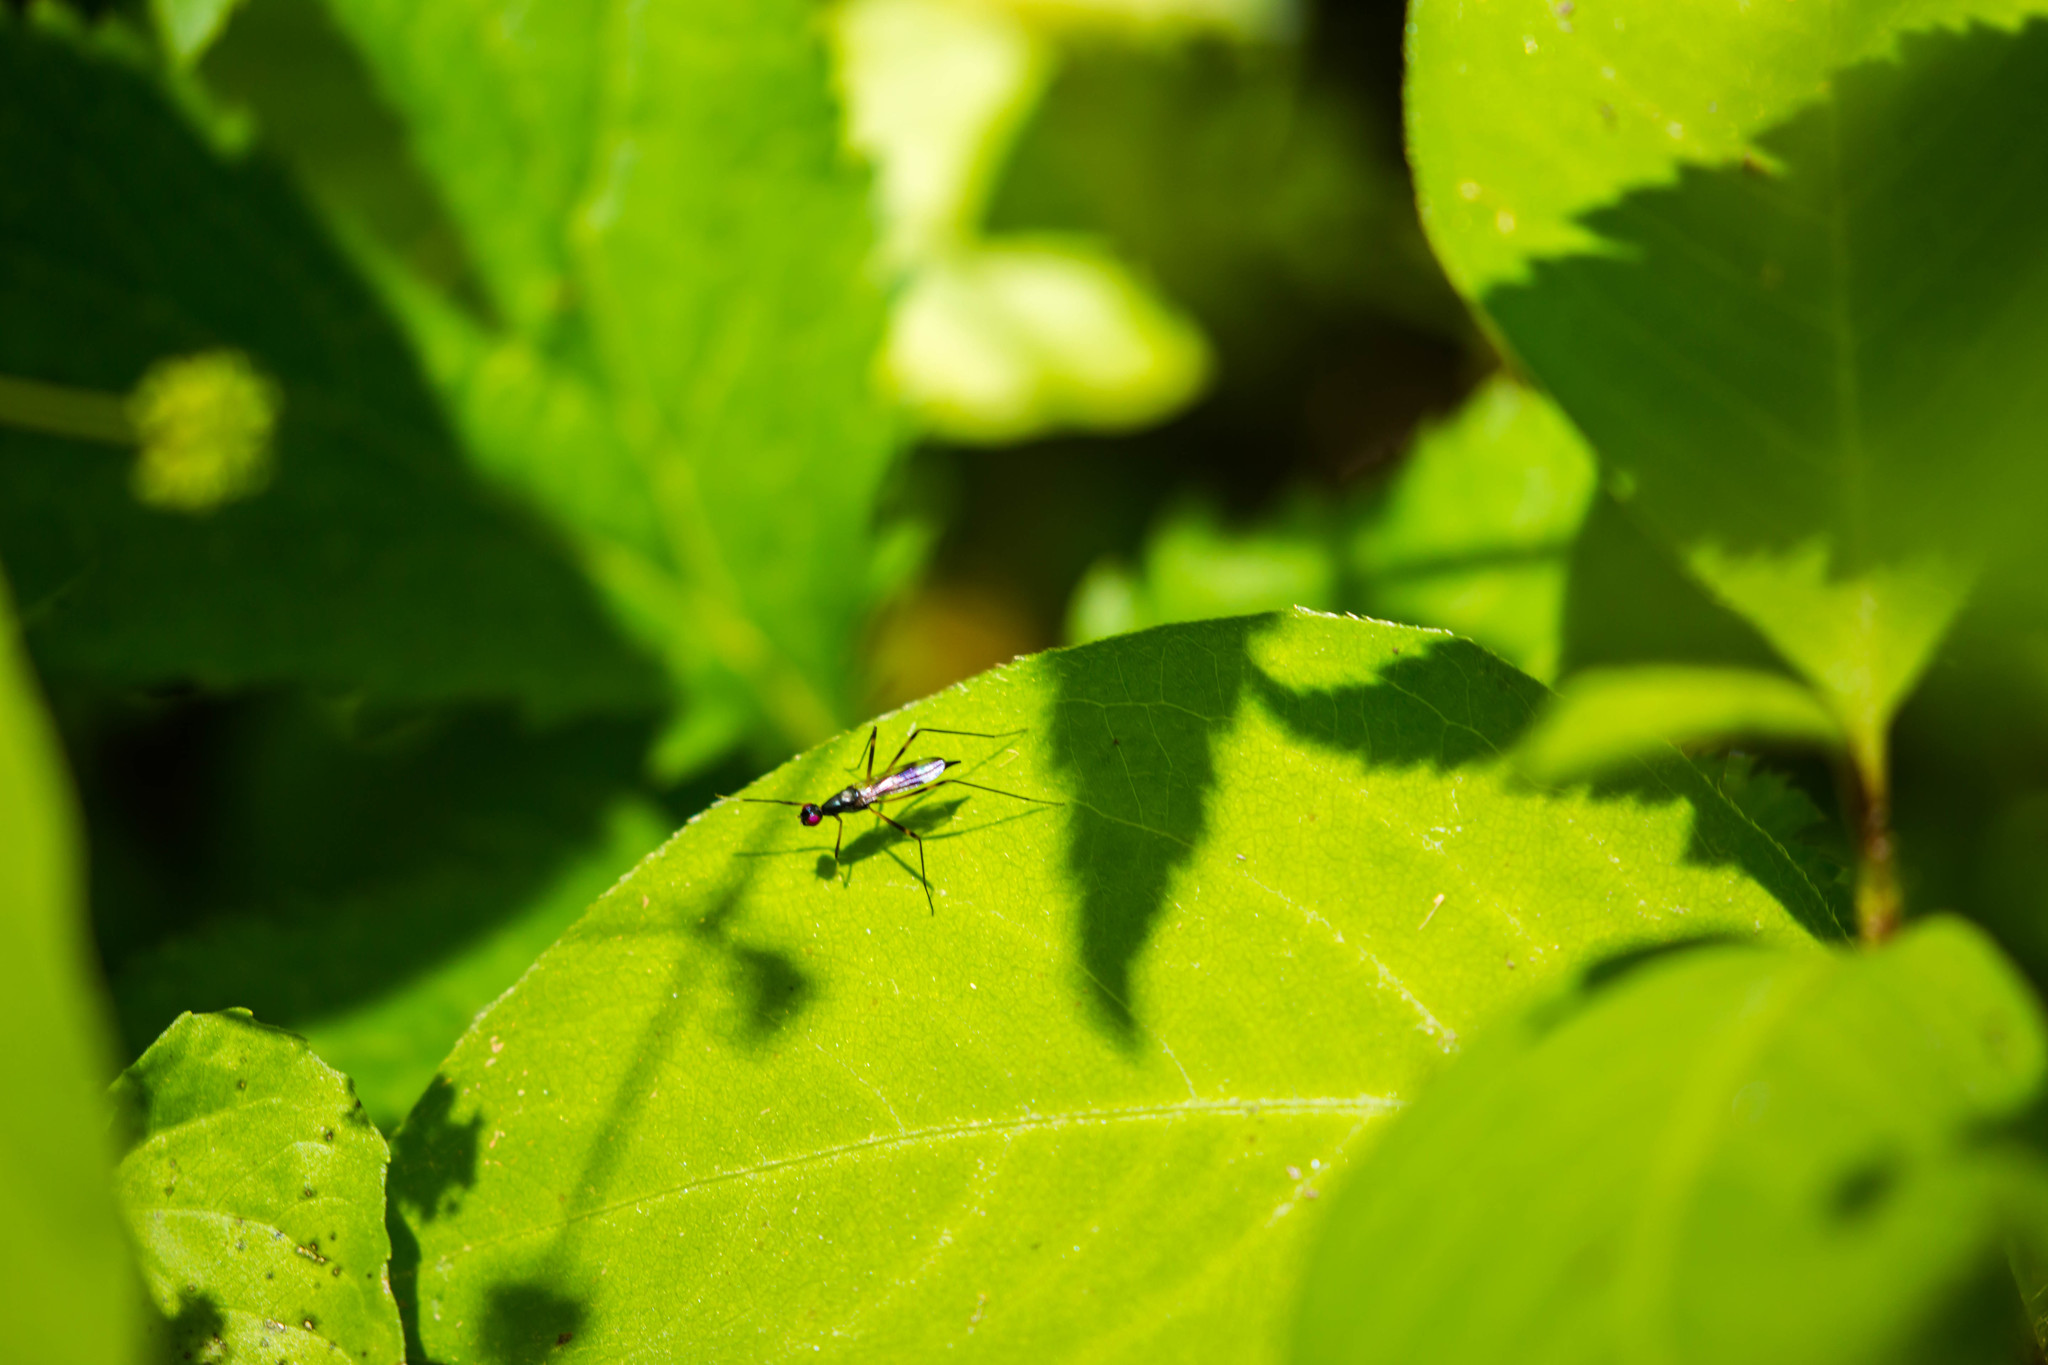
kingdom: Animalia
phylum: Arthropoda
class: Insecta
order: Diptera
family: Micropezidae
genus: Rainieria
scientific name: Rainieria antennaepes
